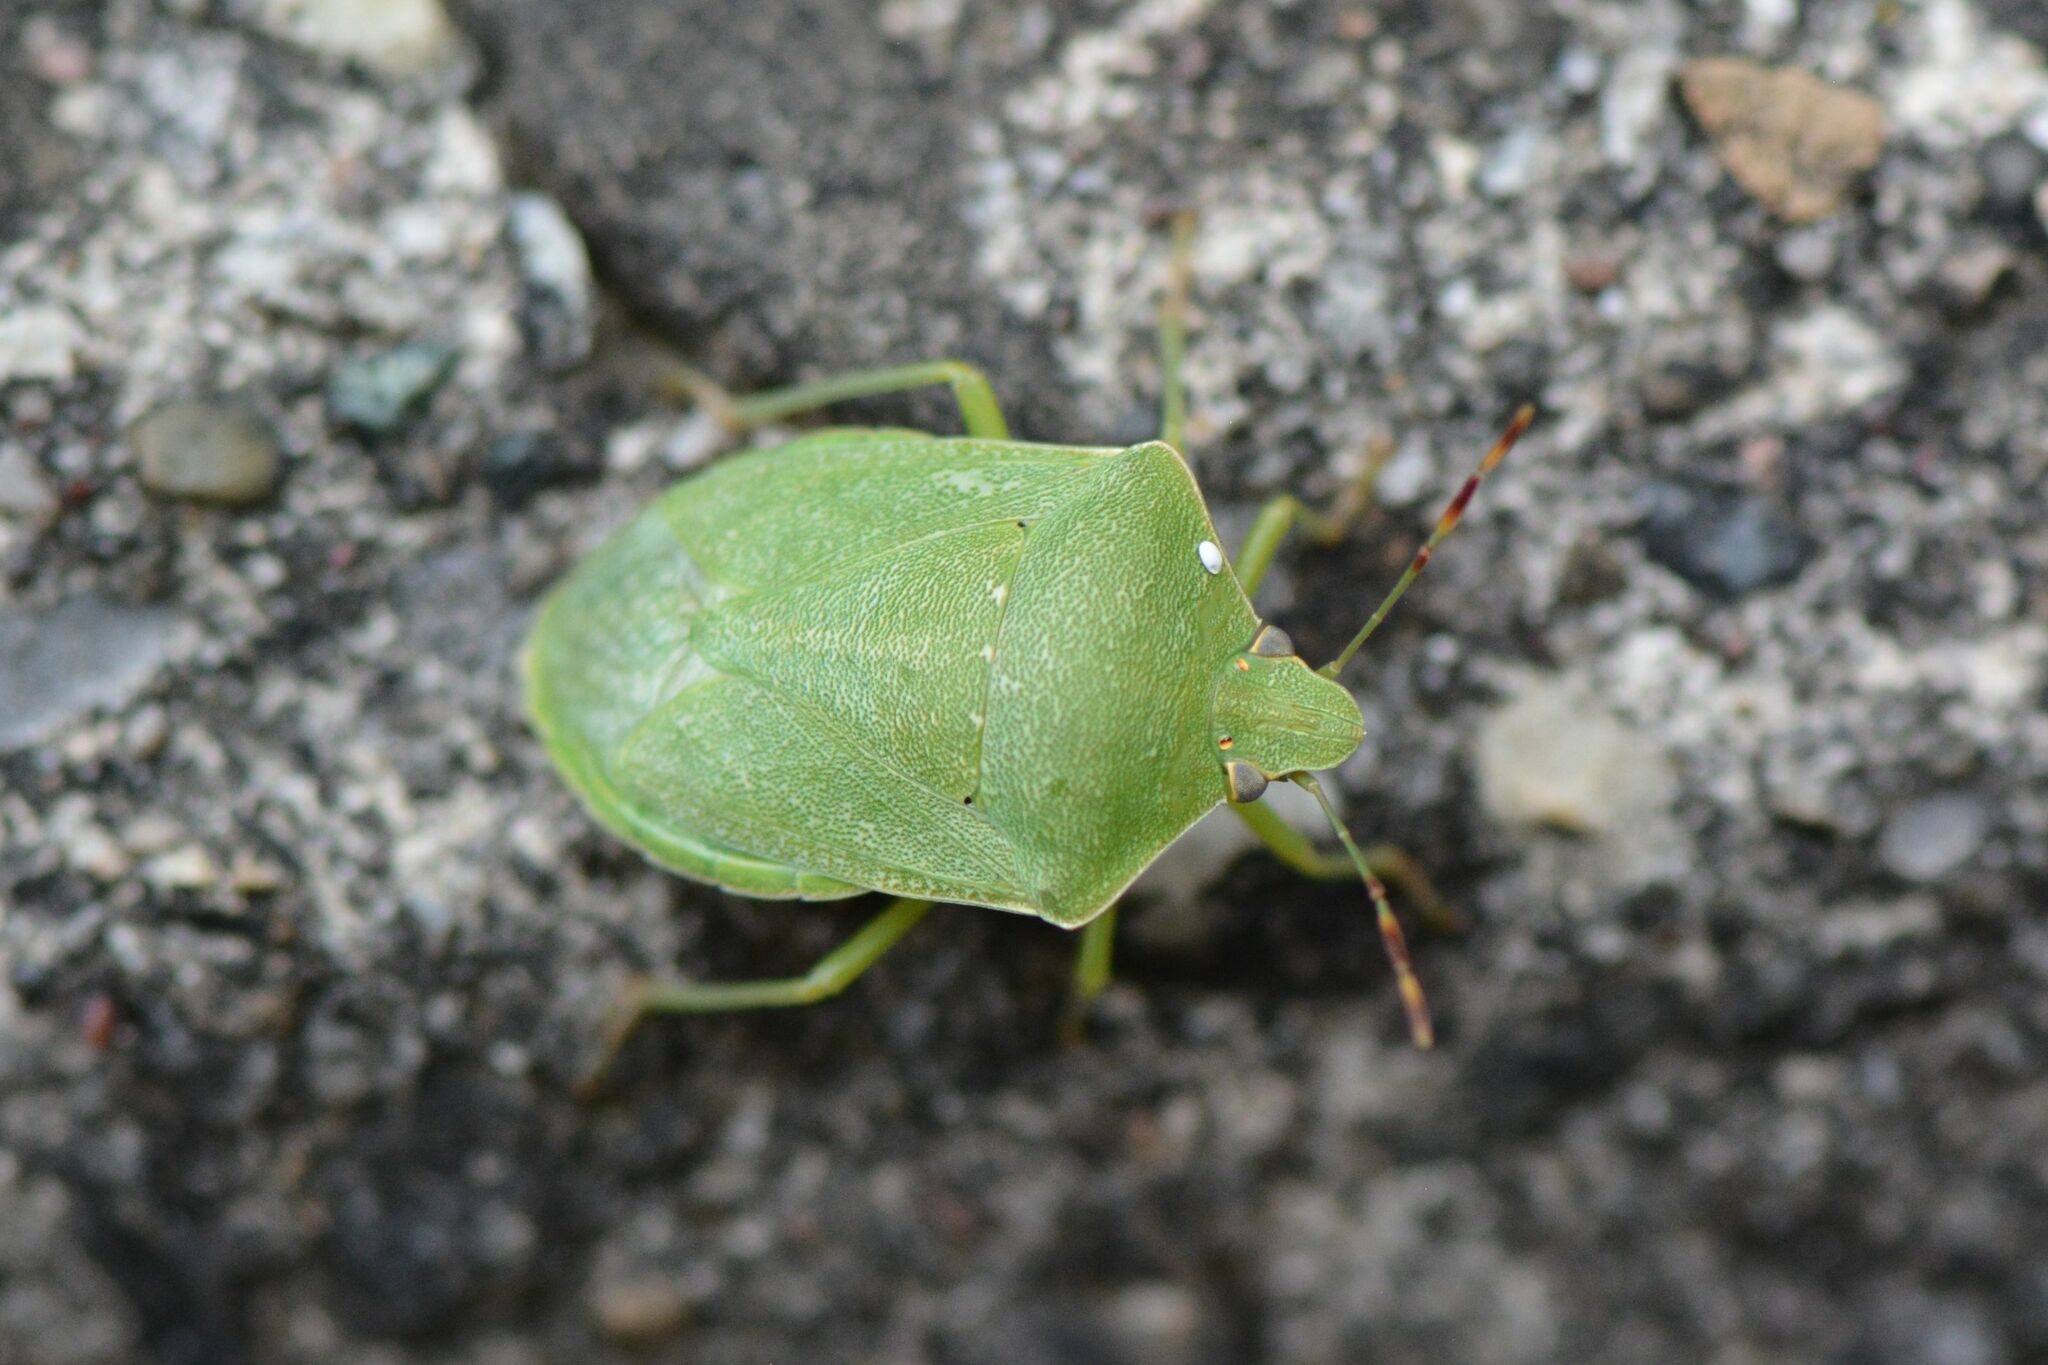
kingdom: Animalia
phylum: Arthropoda
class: Insecta
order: Hemiptera
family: Pentatomidae
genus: Nezara
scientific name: Nezara viridula
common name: Southern green stink bug
